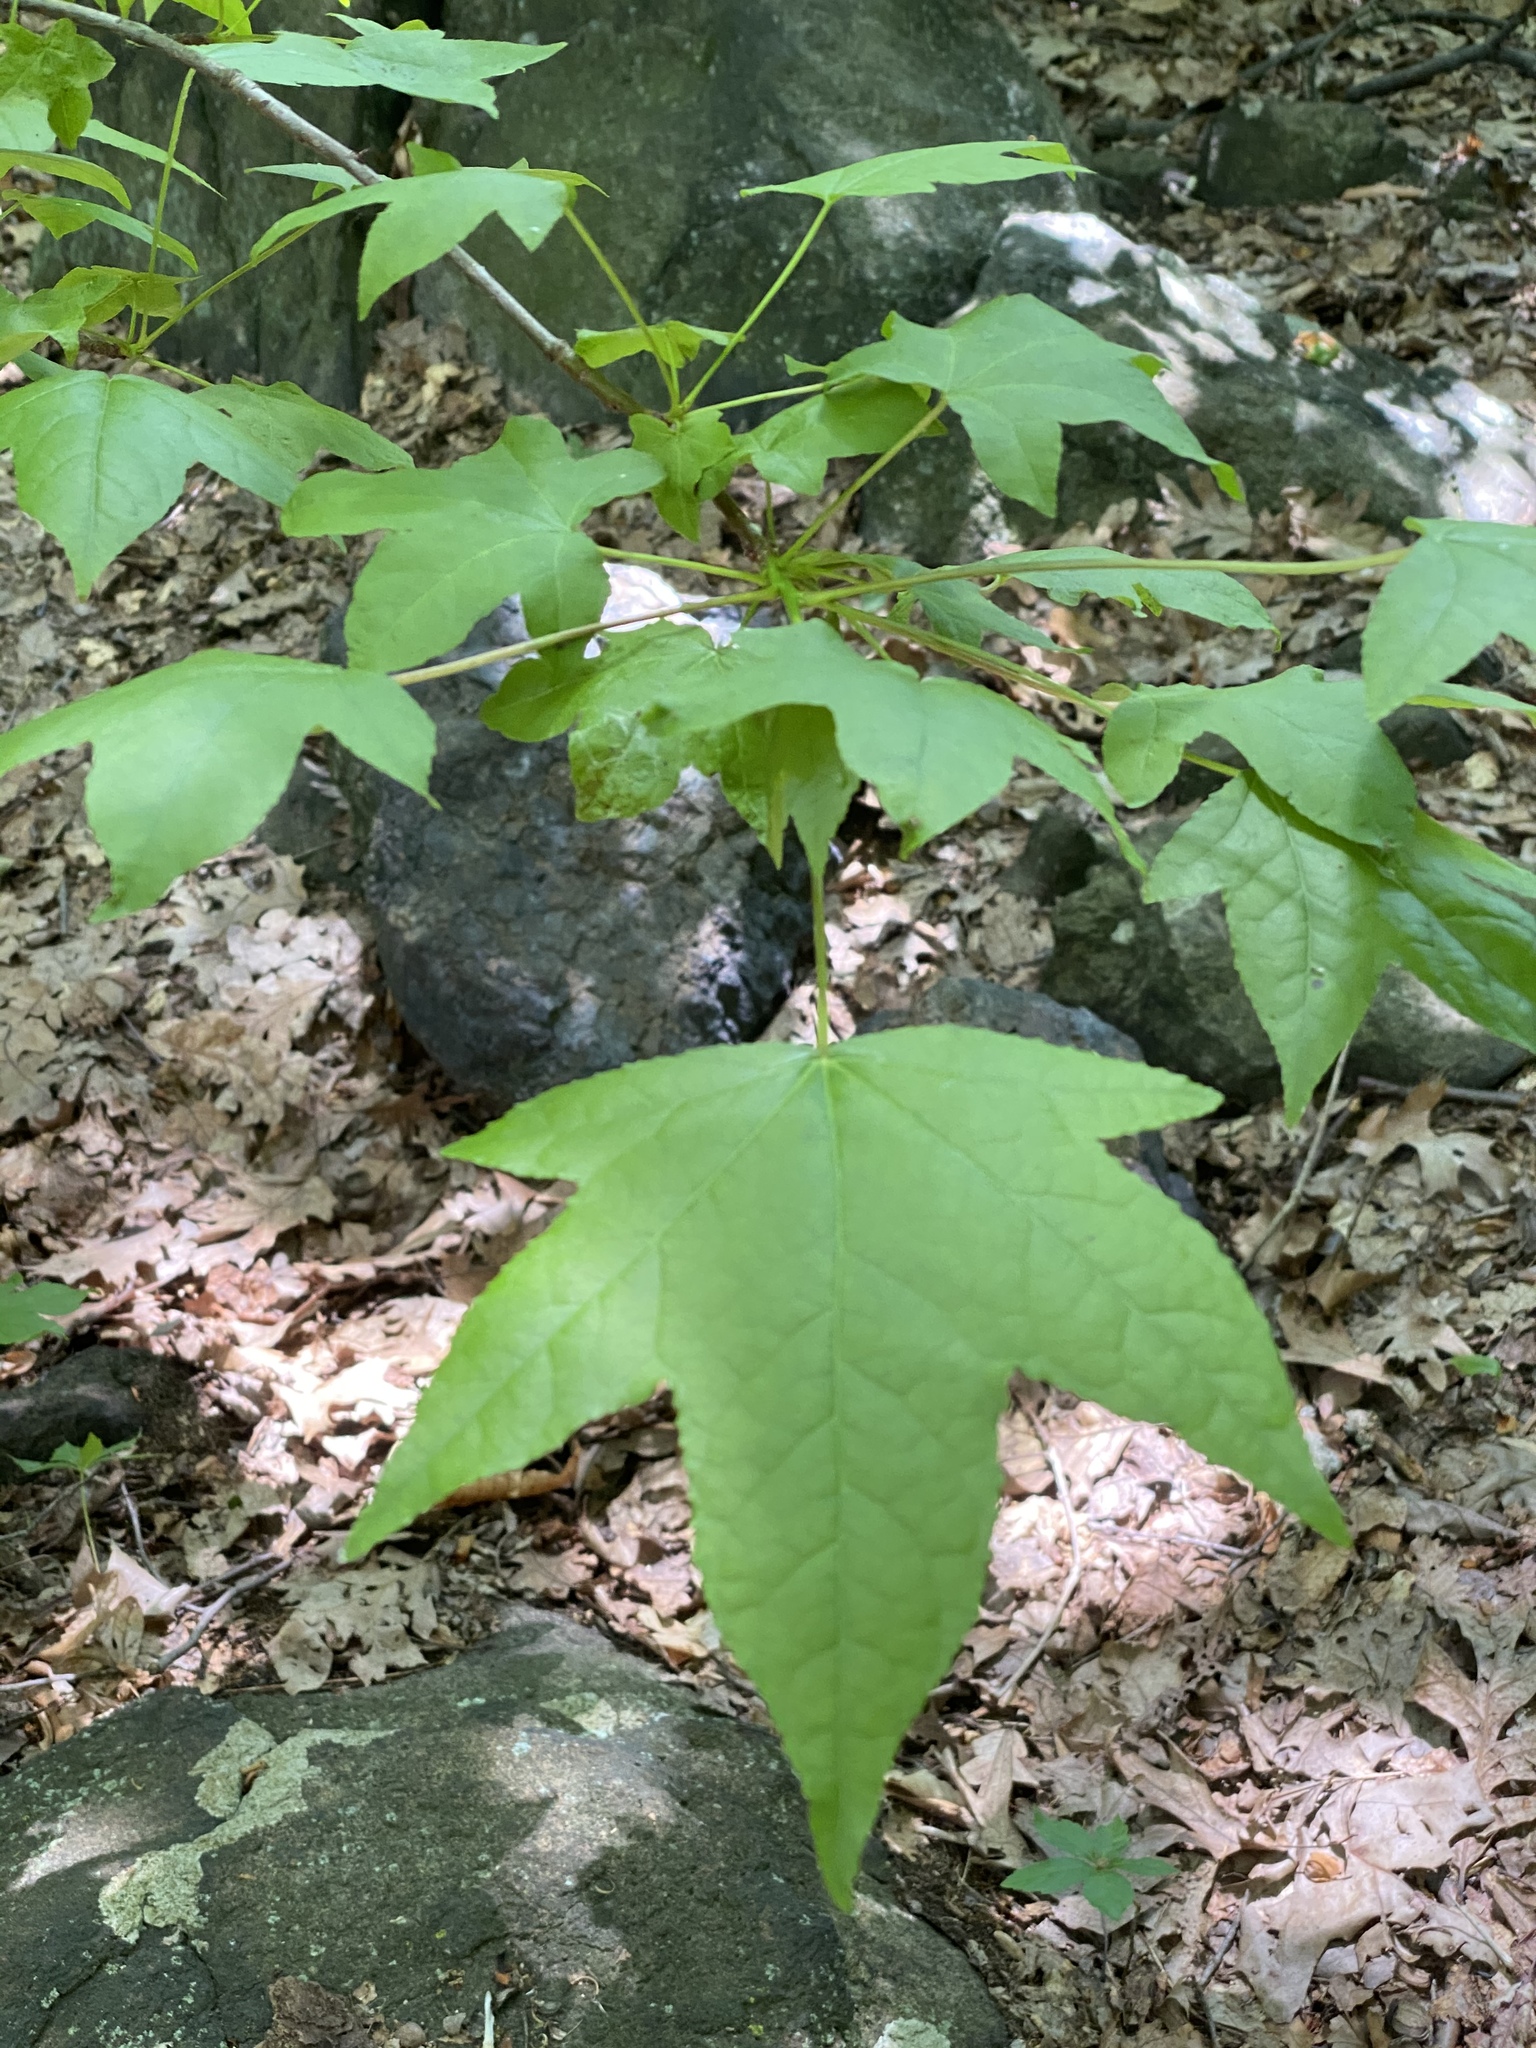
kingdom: Plantae
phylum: Tracheophyta
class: Magnoliopsida
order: Saxifragales
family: Altingiaceae
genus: Liquidambar
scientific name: Liquidambar styraciflua
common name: Sweet gum
